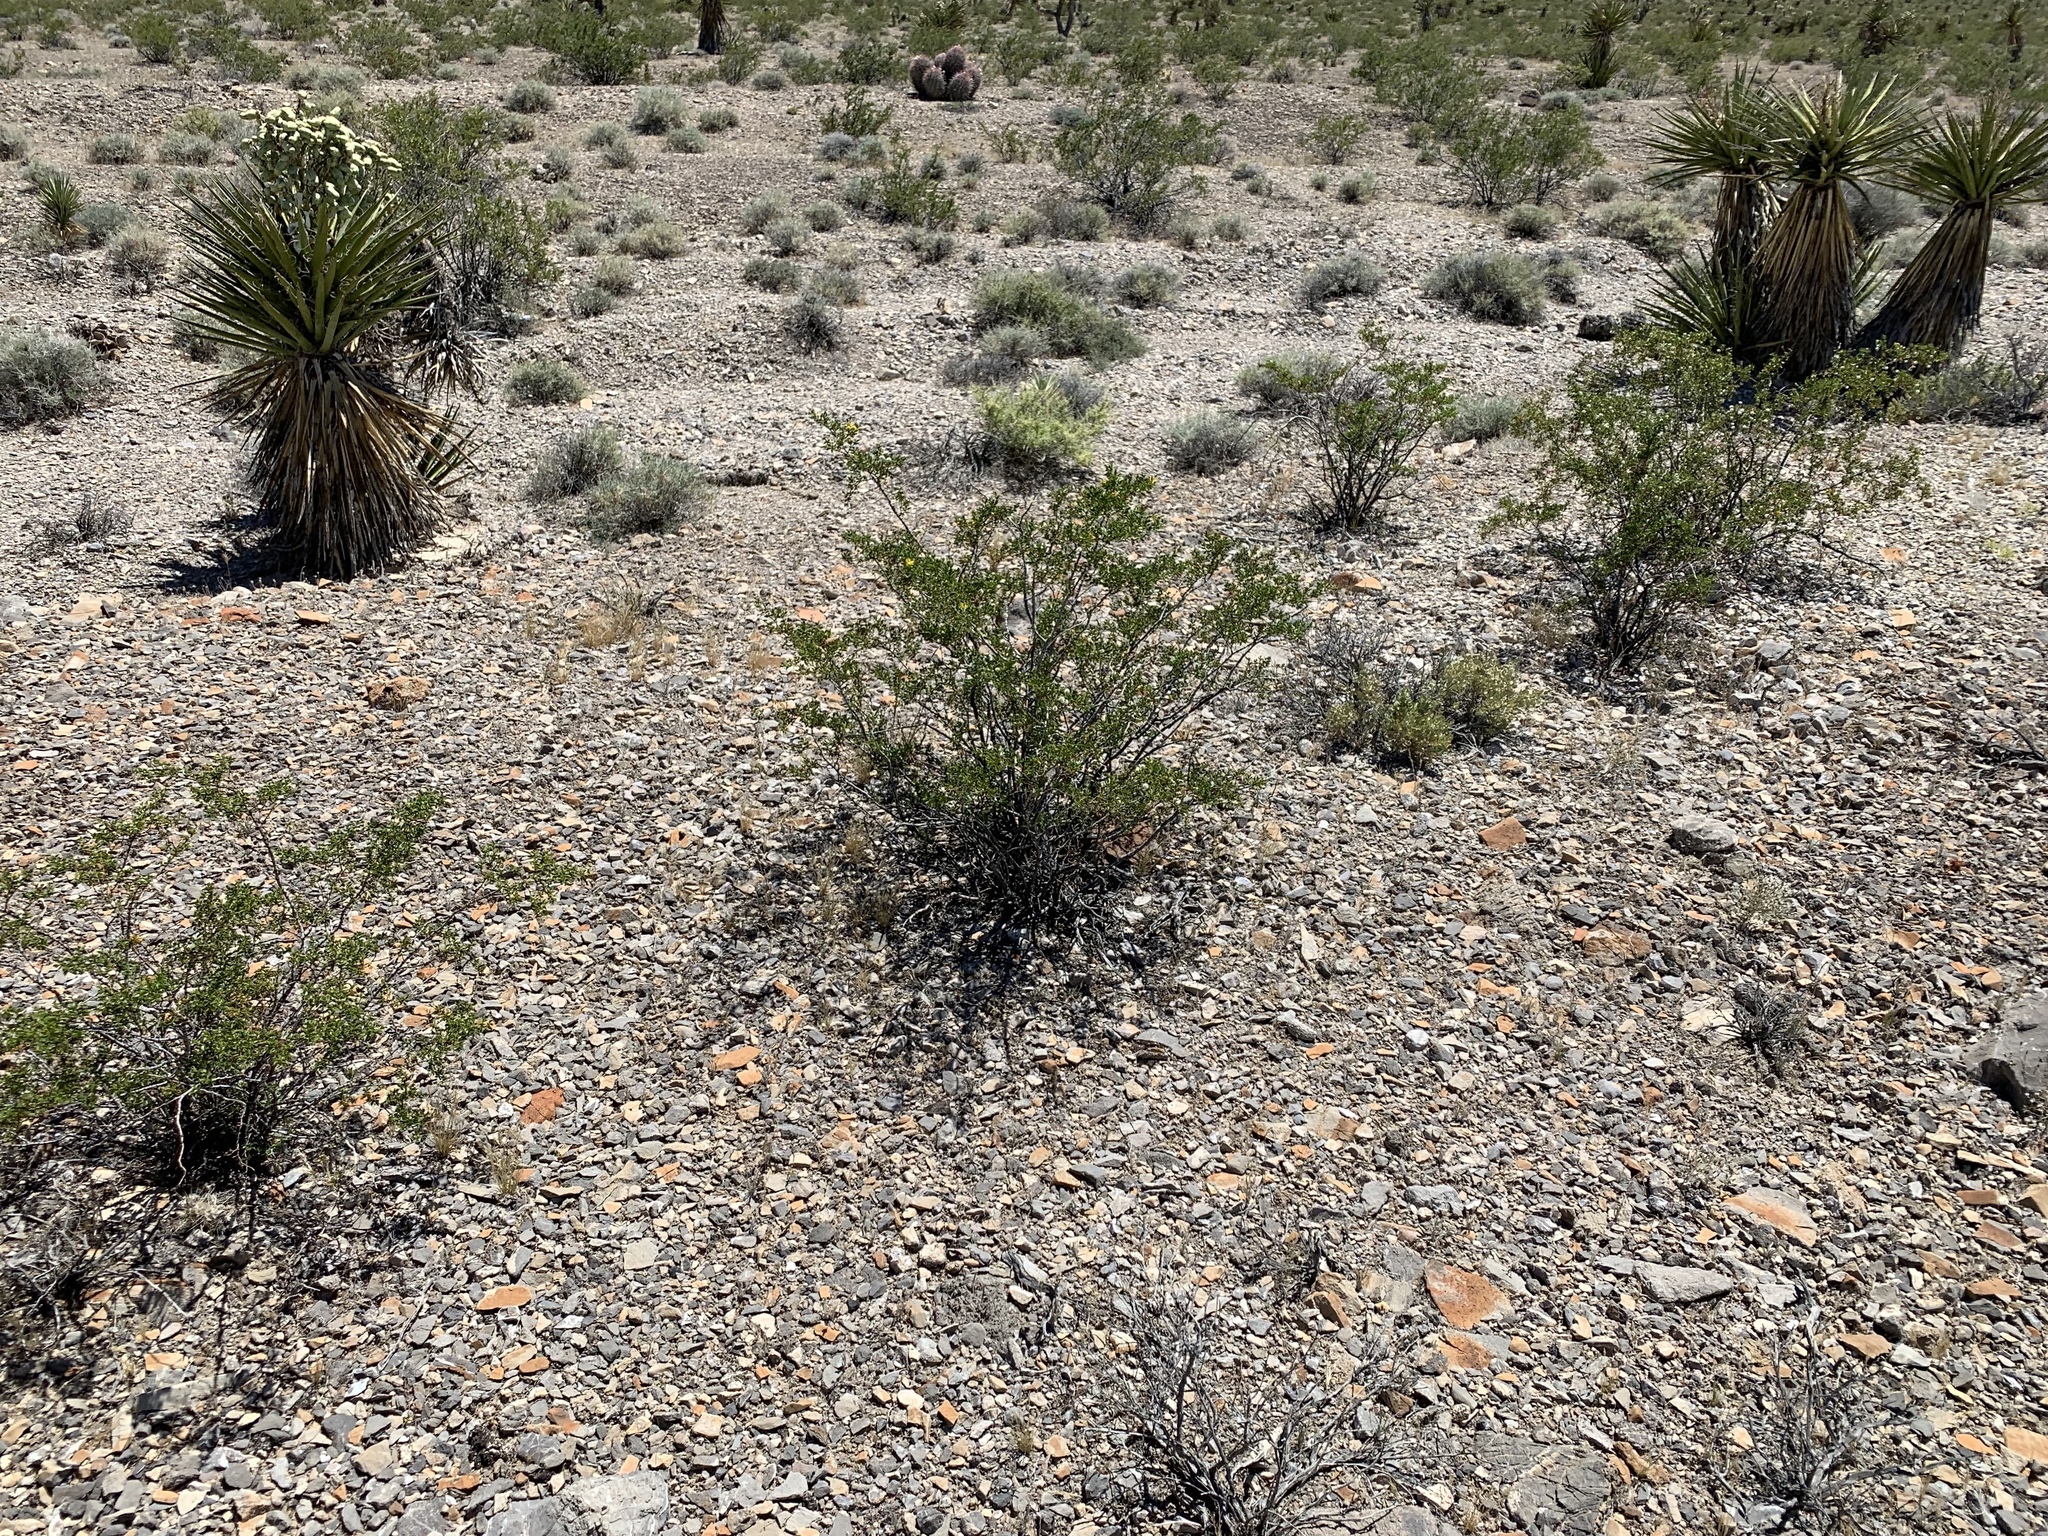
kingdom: Plantae
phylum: Tracheophyta
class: Magnoliopsida
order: Zygophyllales
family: Zygophyllaceae
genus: Larrea
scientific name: Larrea tridentata
